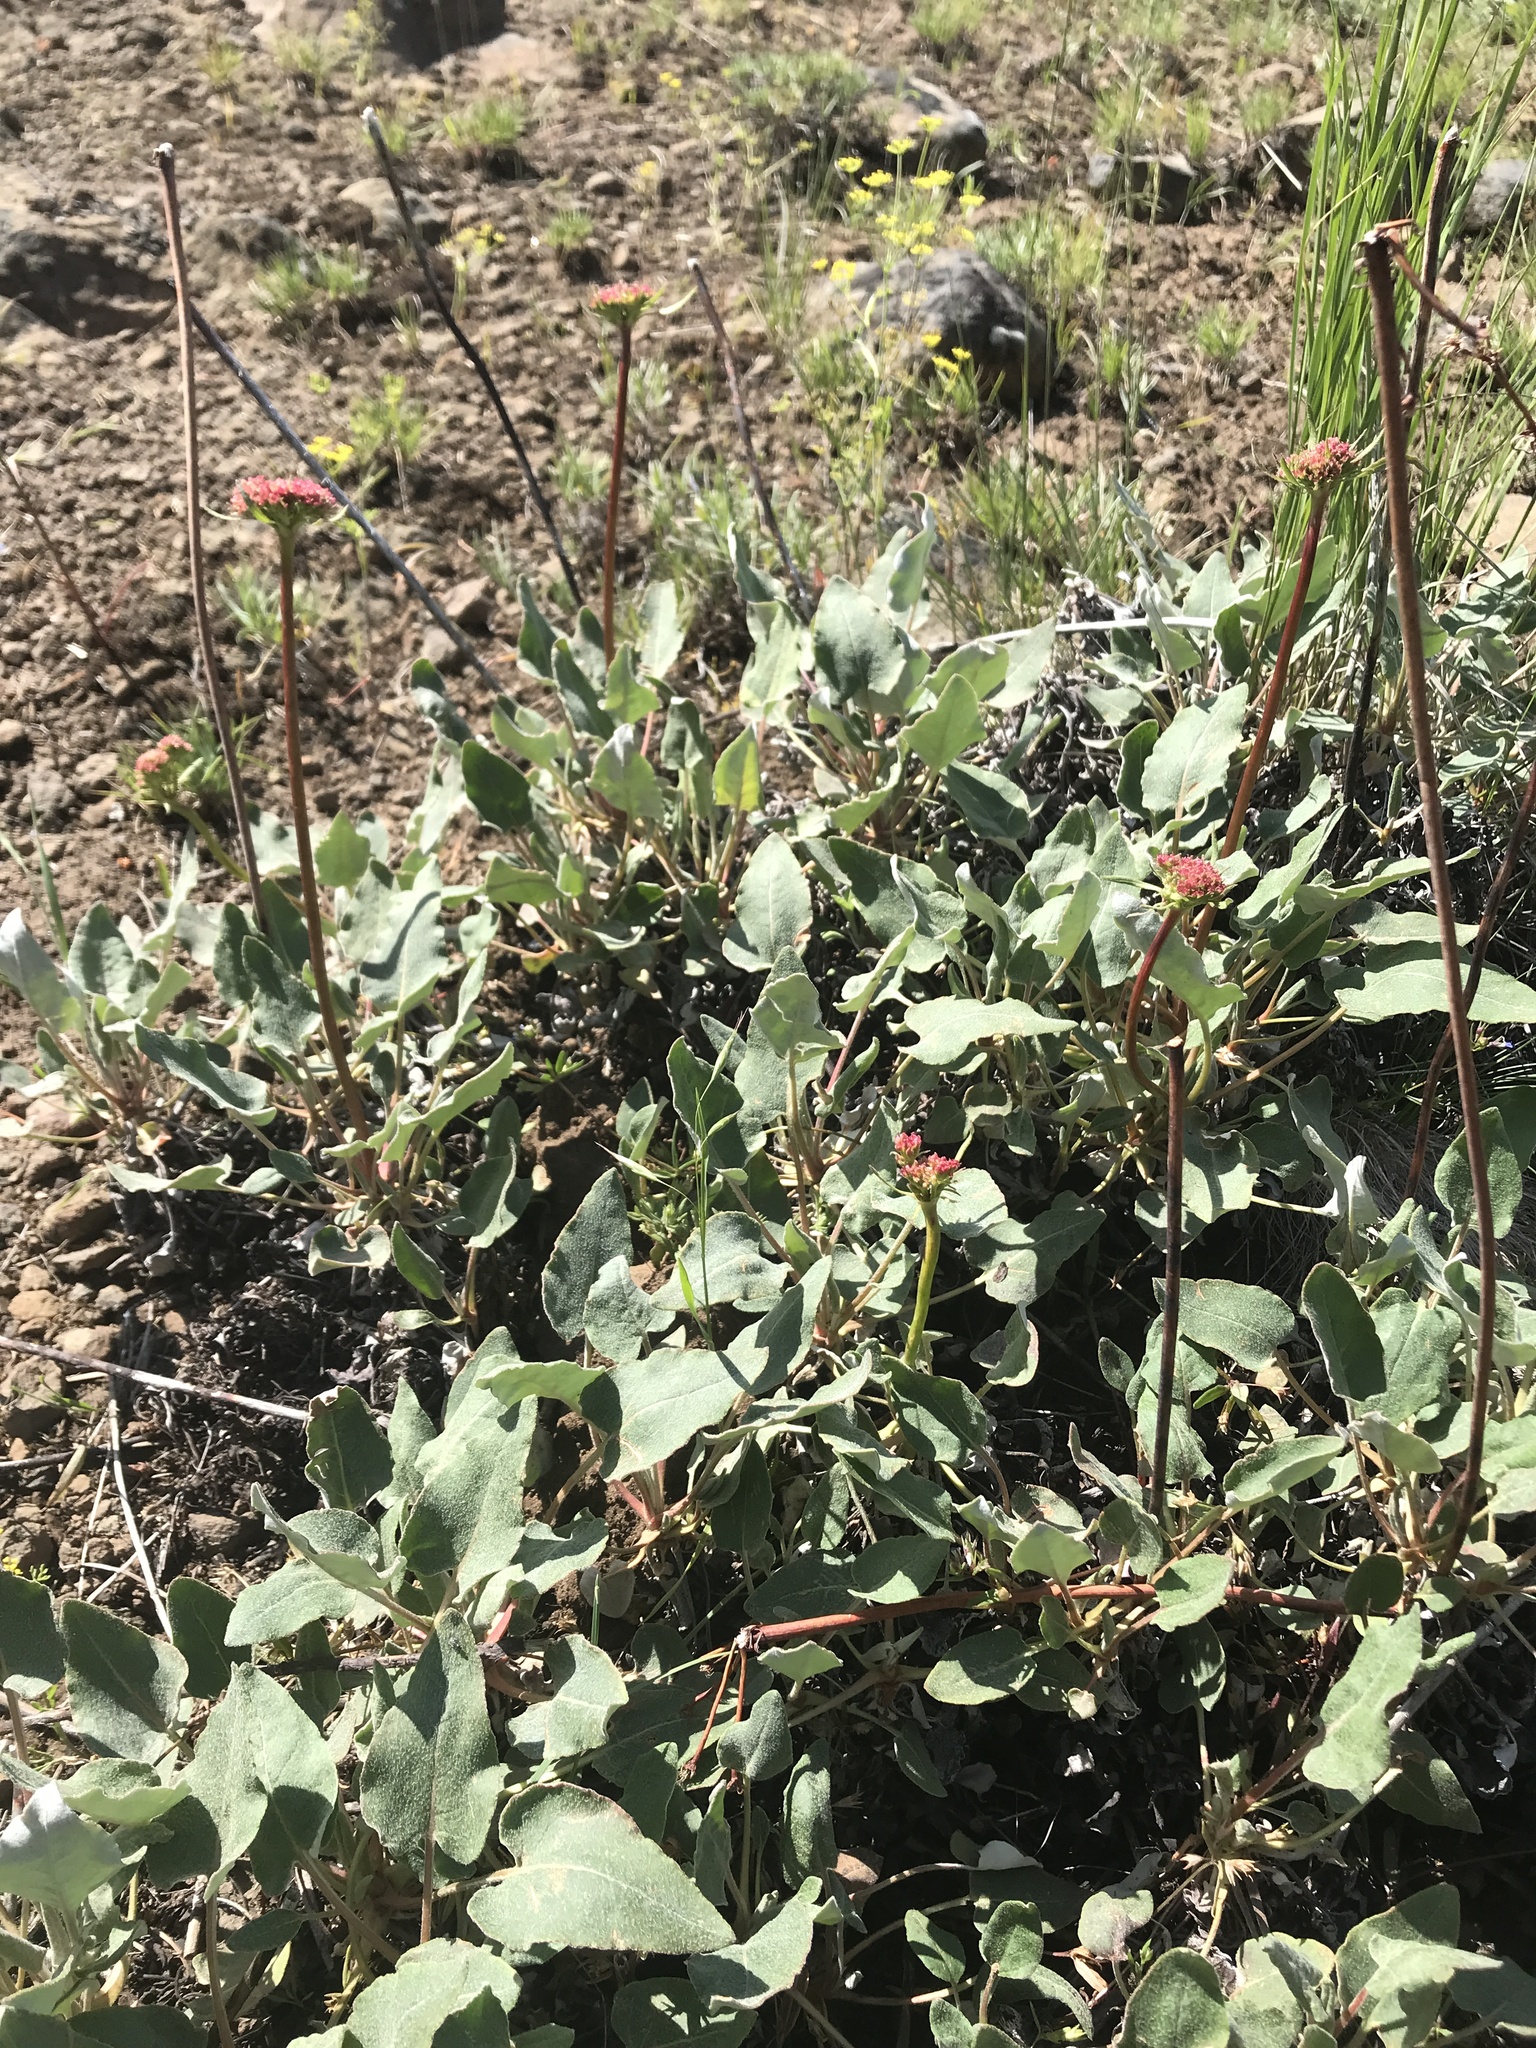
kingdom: Plantae
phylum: Tracheophyta
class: Magnoliopsida
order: Caryophyllales
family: Polygonaceae
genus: Eriogonum
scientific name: Eriogonum compositum
